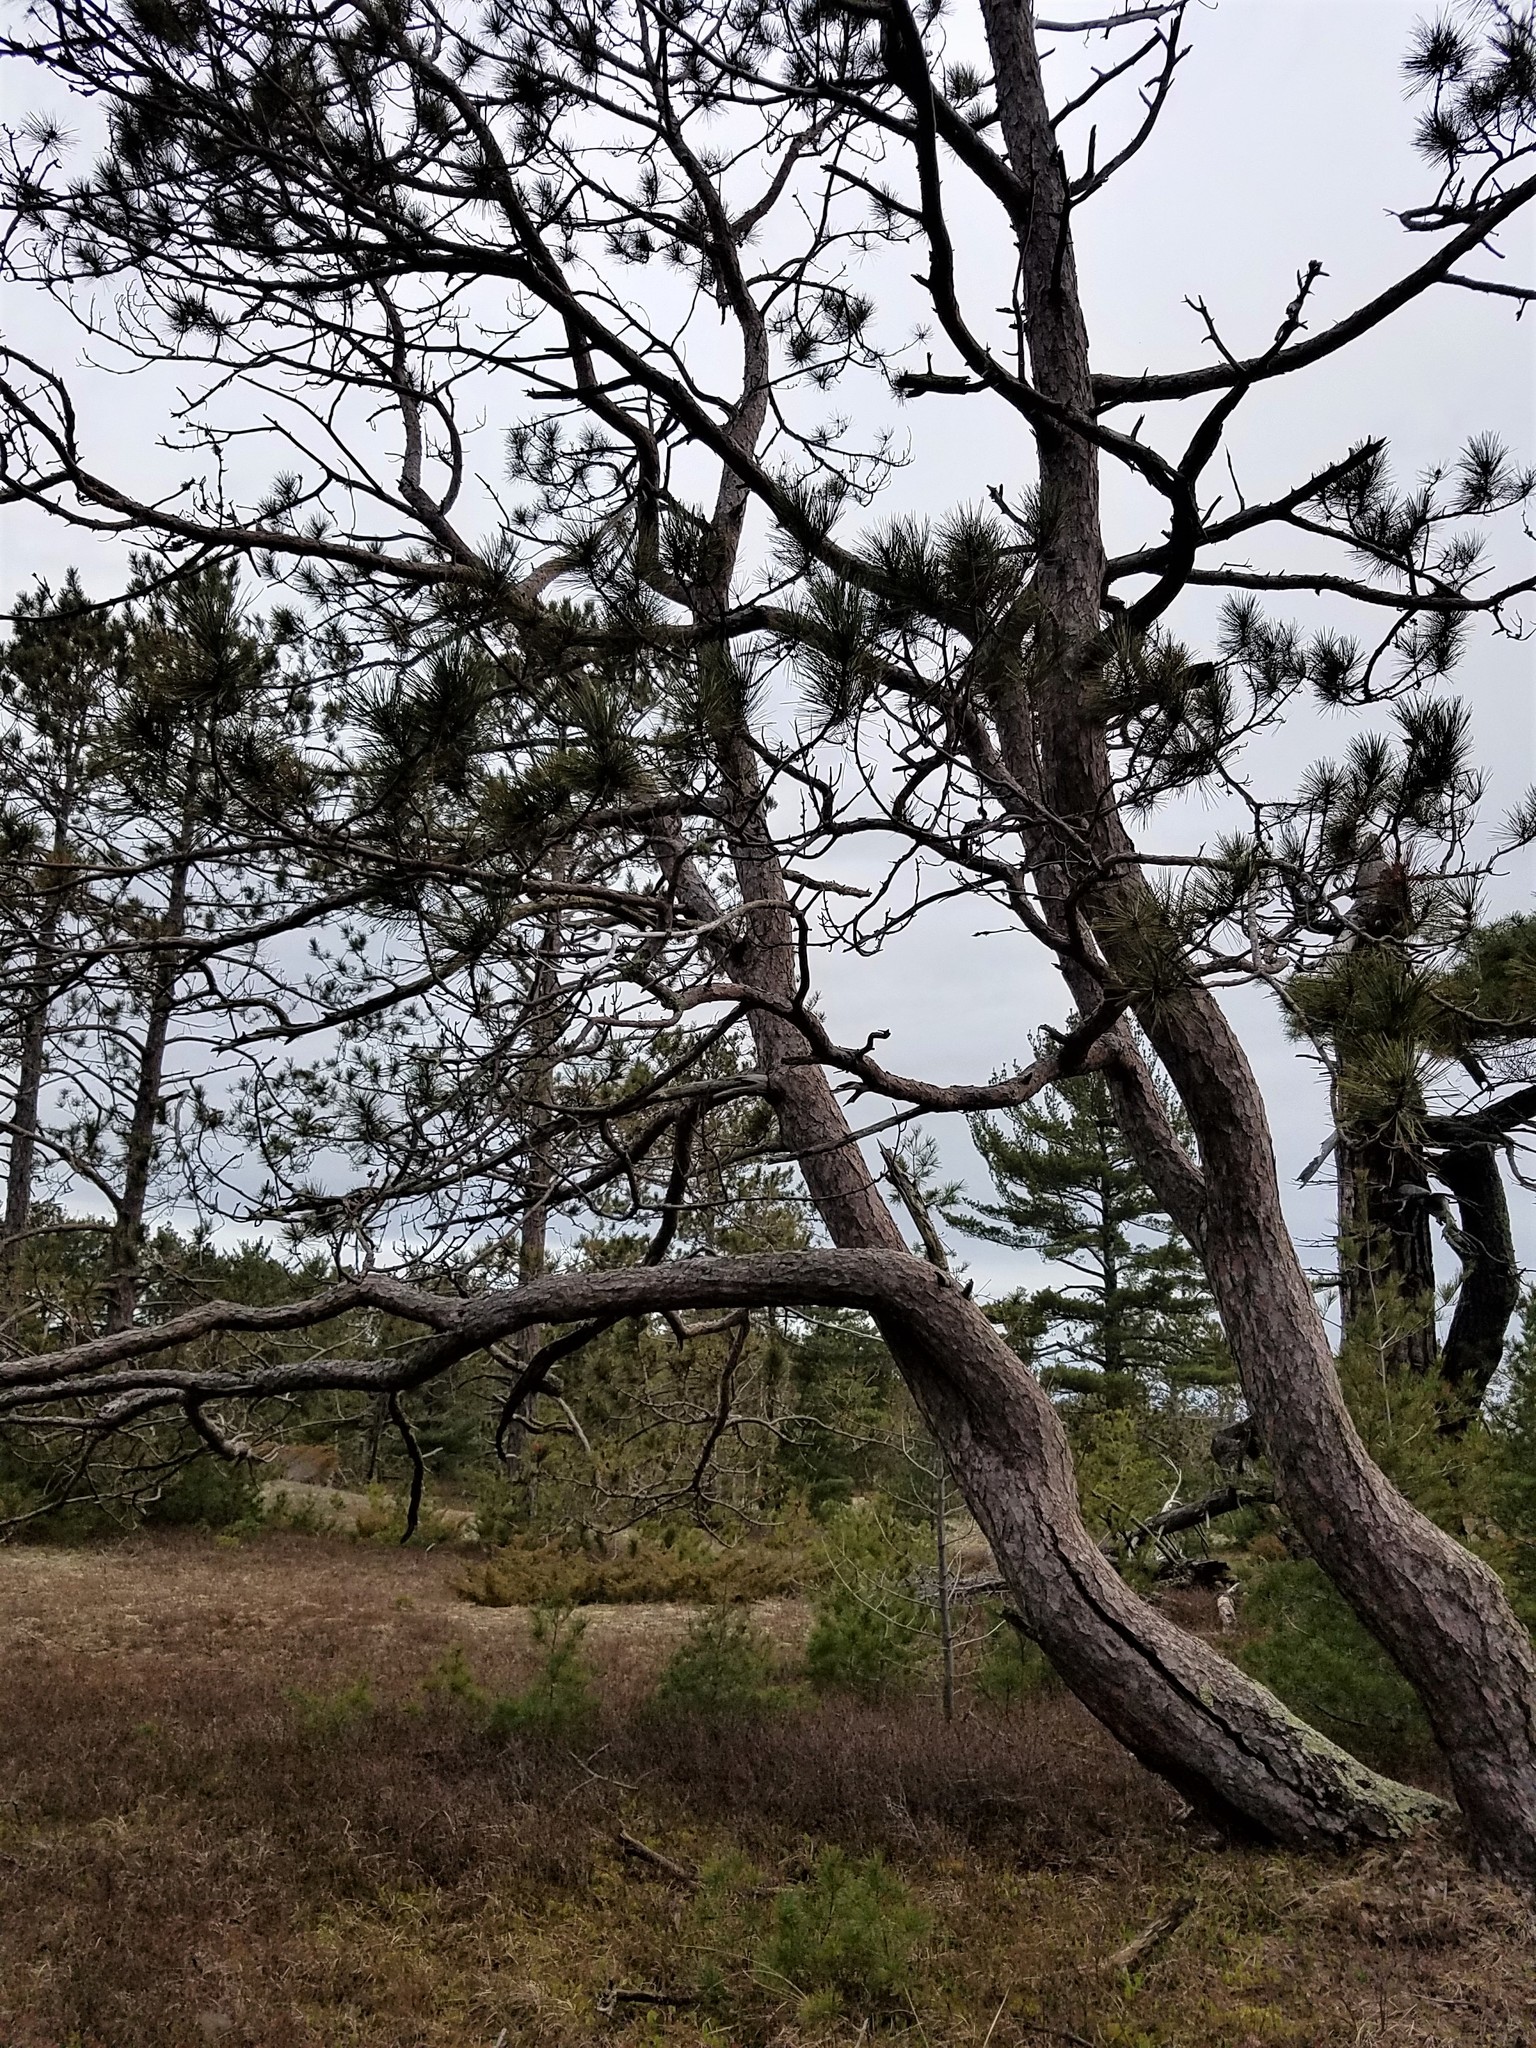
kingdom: Plantae
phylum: Tracheophyta
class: Pinopsida
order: Pinales
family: Pinaceae
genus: Pinus
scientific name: Pinus resinosa
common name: Norway pine
